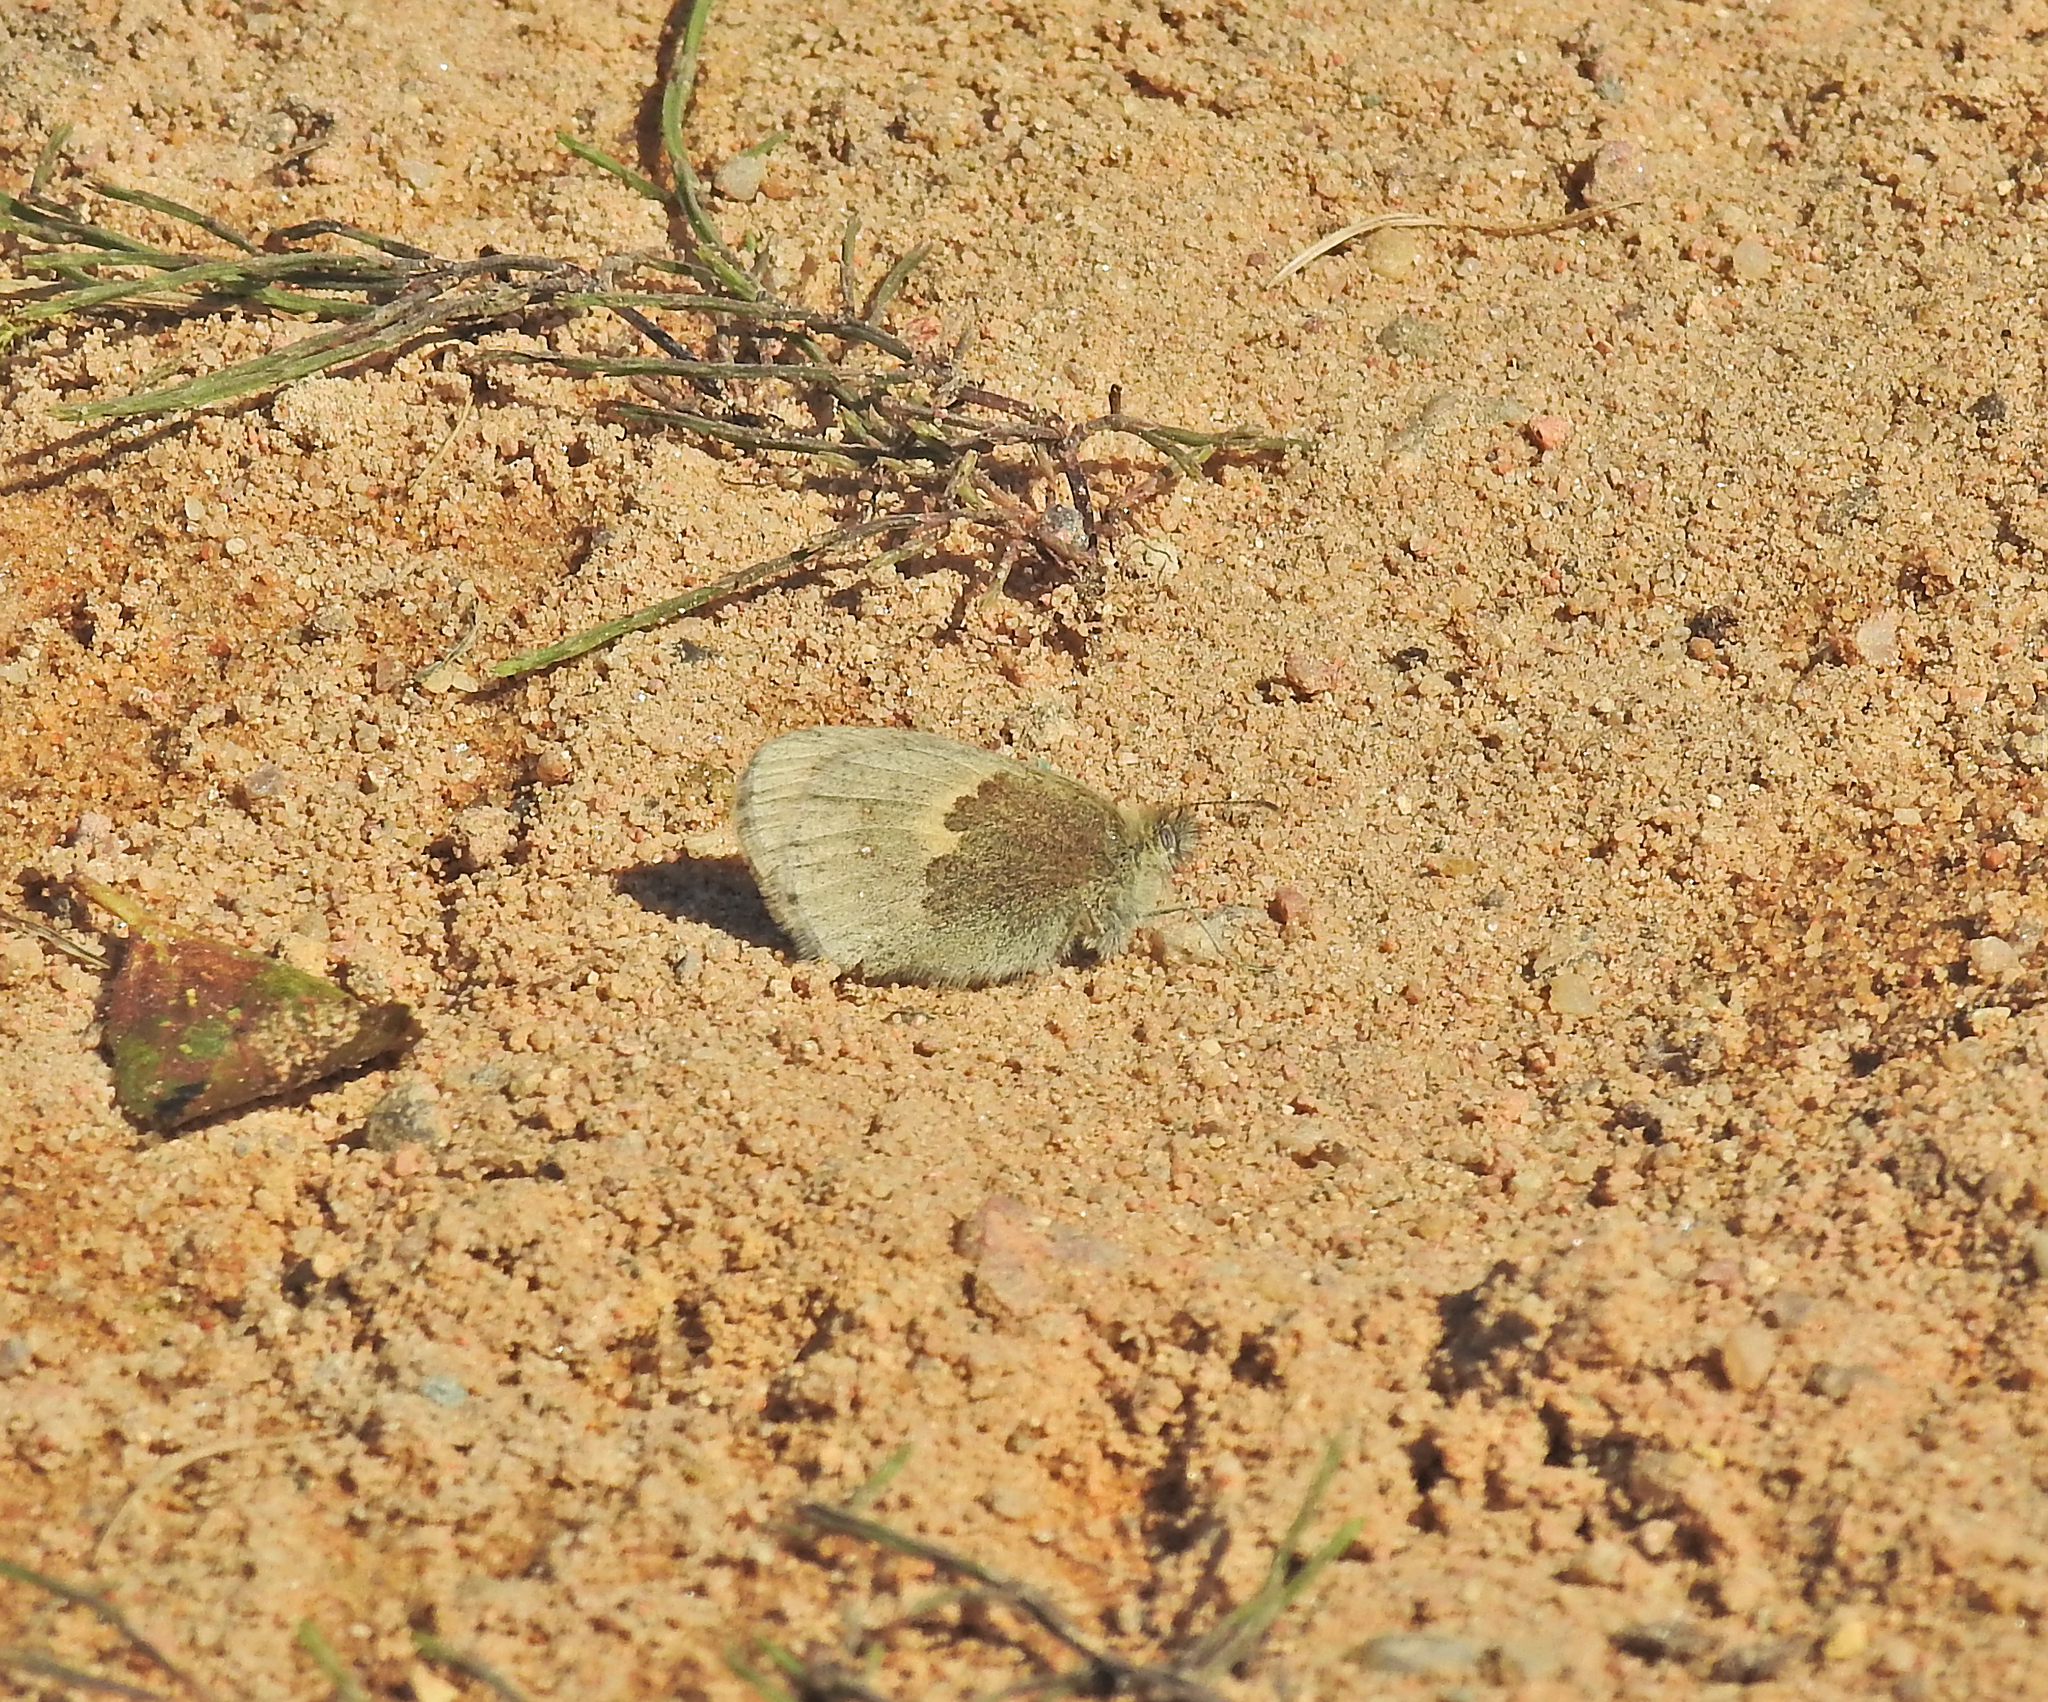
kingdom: Animalia
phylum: Arthropoda
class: Insecta
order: Lepidoptera
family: Nymphalidae
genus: Coenonympha
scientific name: Coenonympha pamphilus
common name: Small heath
